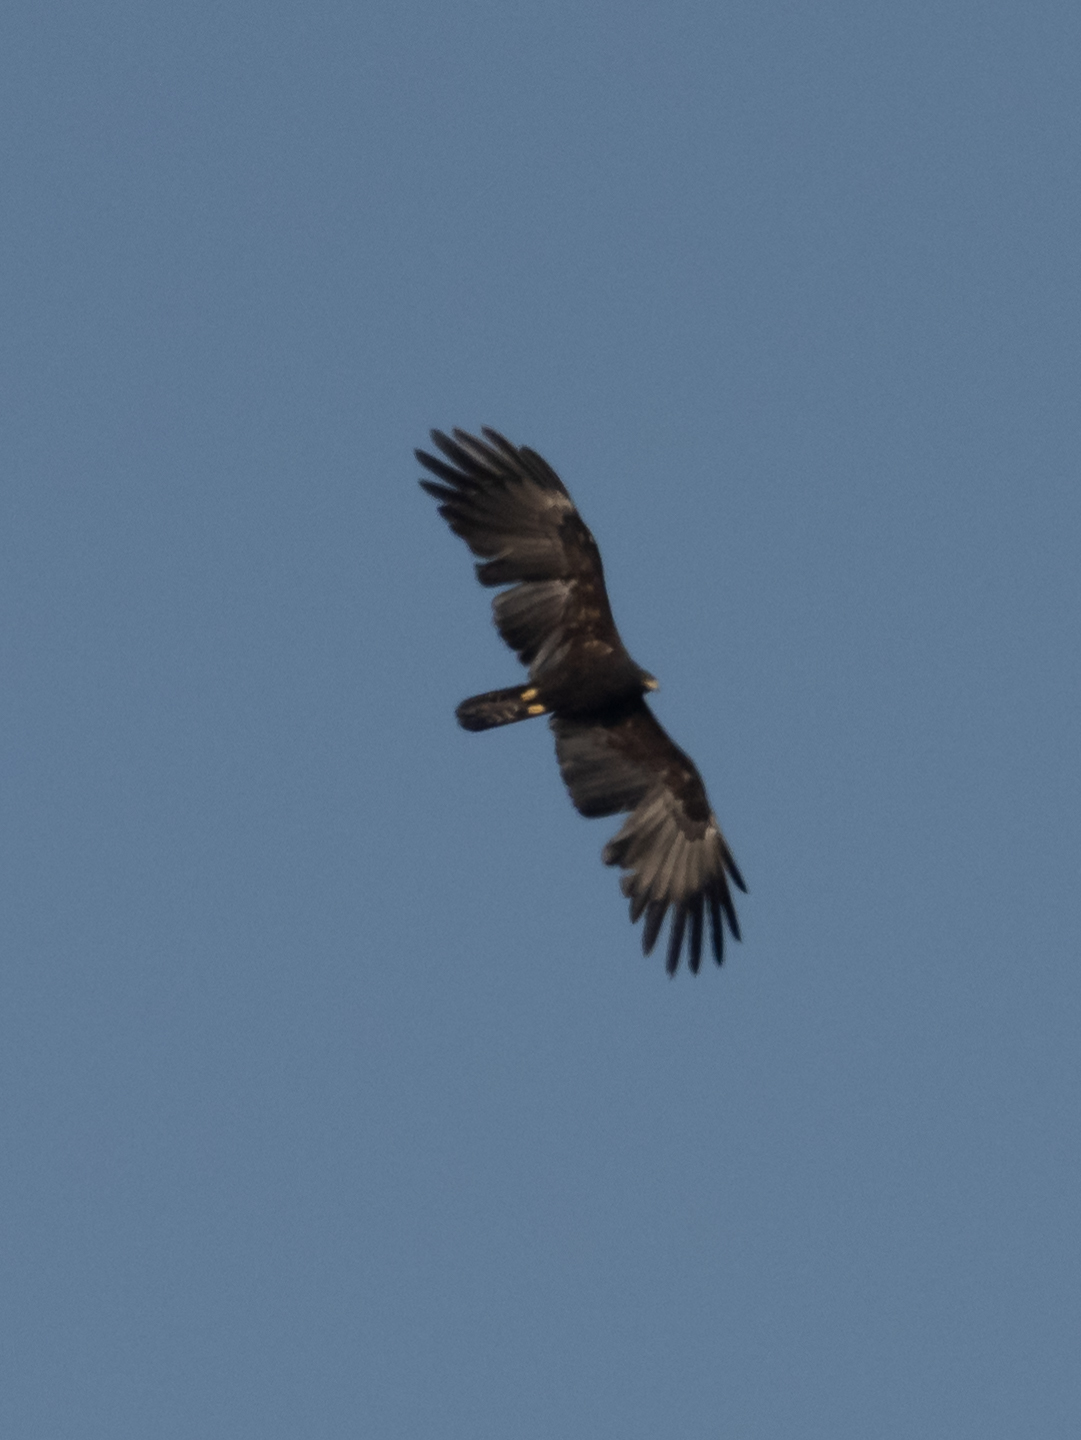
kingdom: Animalia
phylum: Chordata
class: Aves
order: Accipitriformes
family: Accipitridae
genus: Ictinaetus
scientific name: Ictinaetus malayensis
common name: Black eagle
